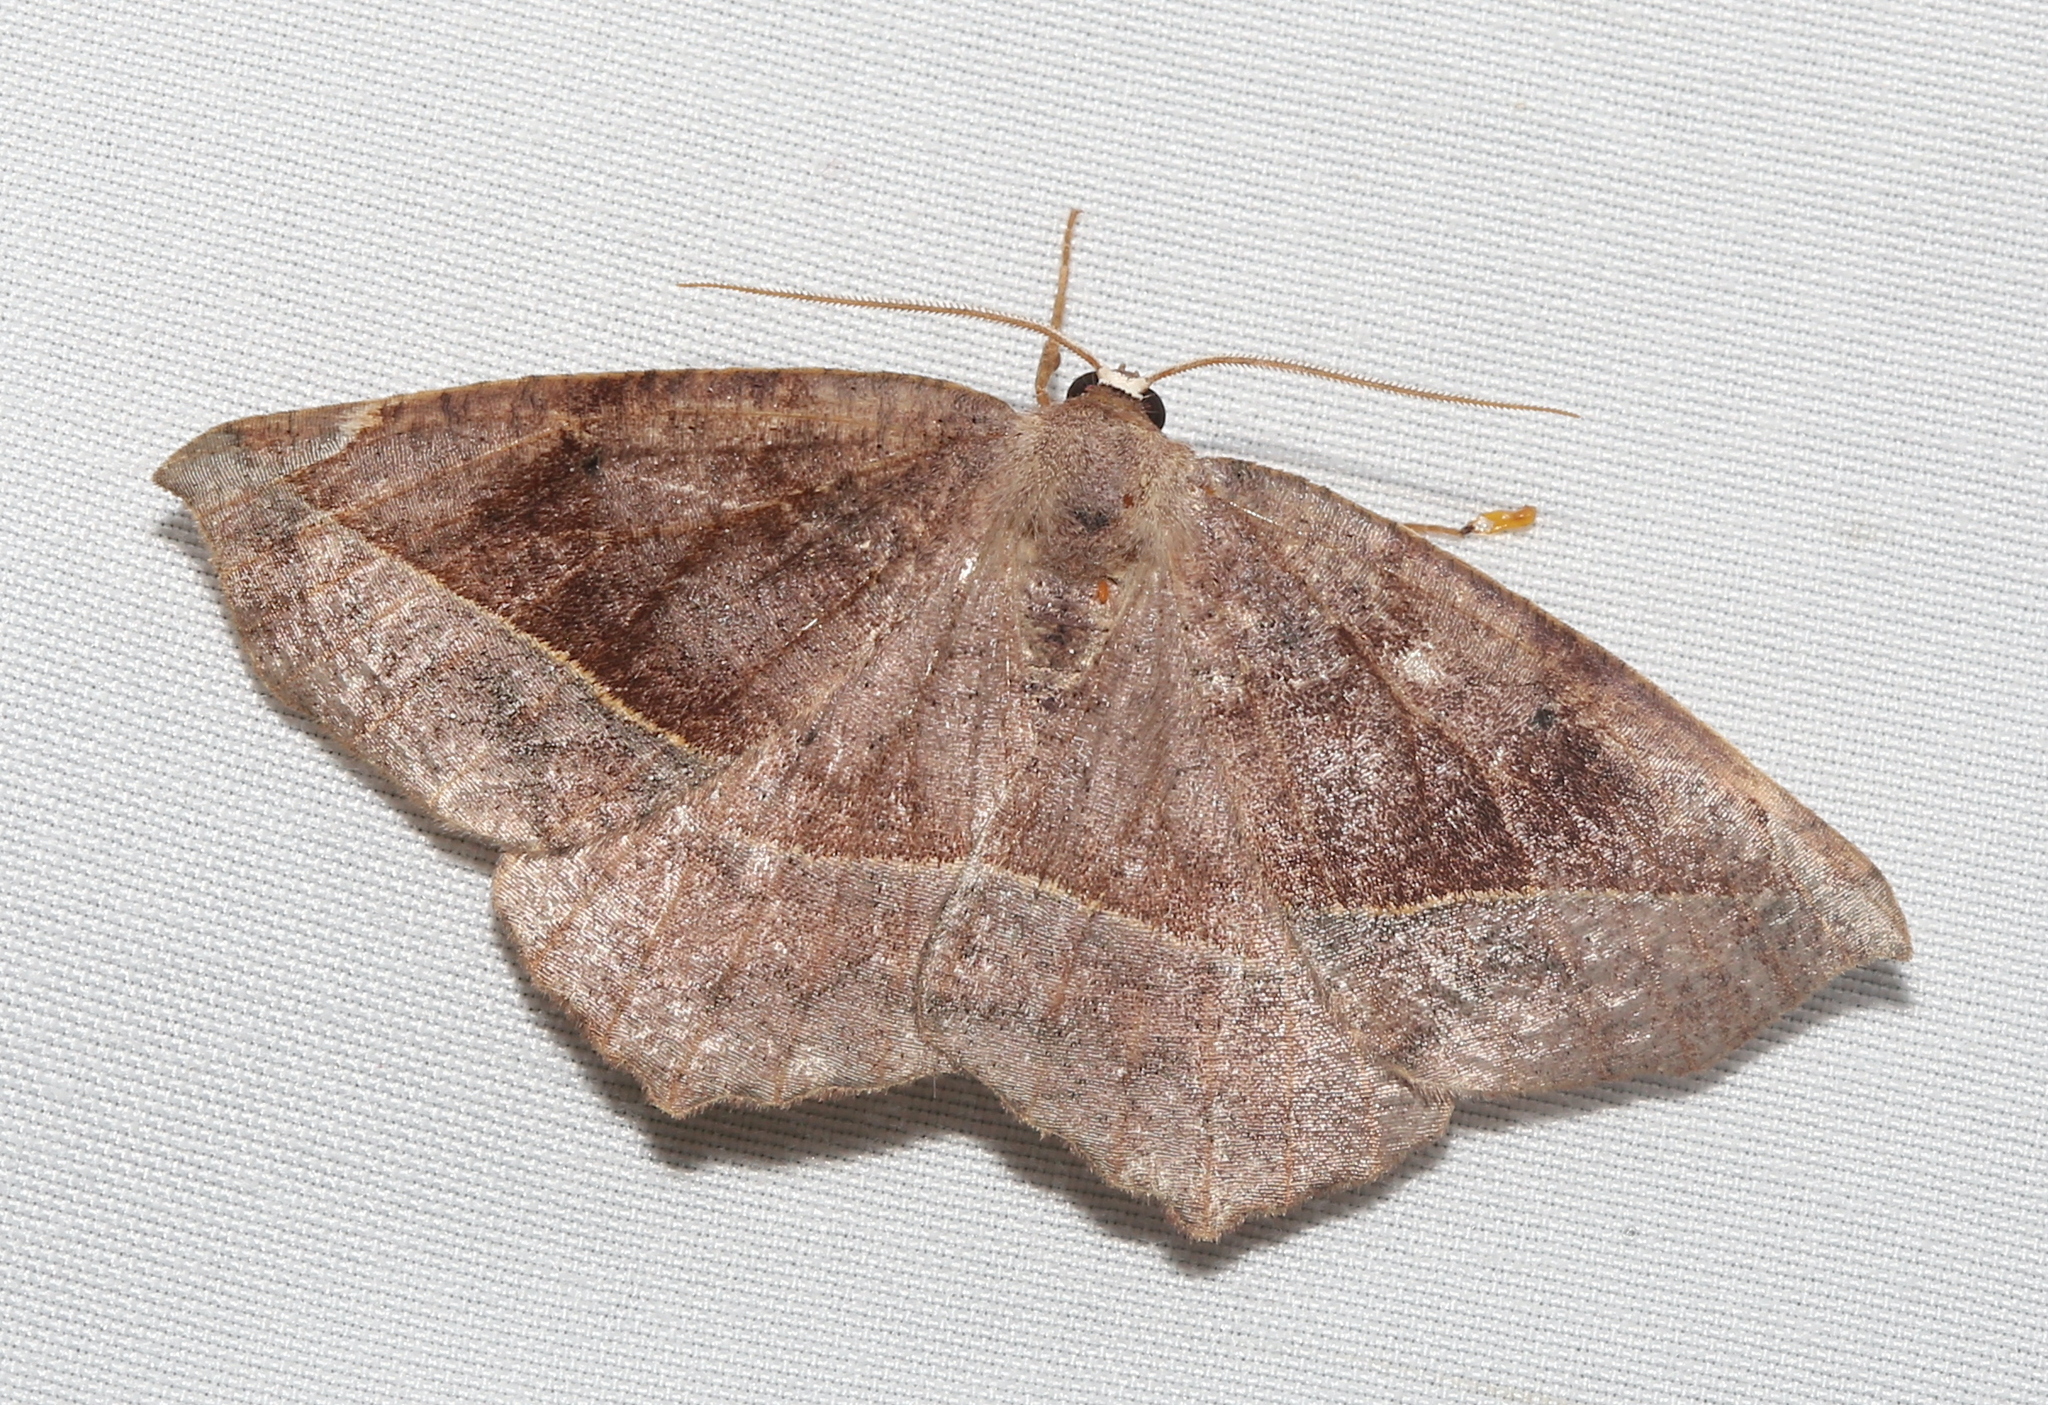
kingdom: Animalia
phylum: Arthropoda
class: Insecta
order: Lepidoptera
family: Geometridae
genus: Eutrapela
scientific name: Eutrapela clemataria
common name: Curved-toothed geometer
